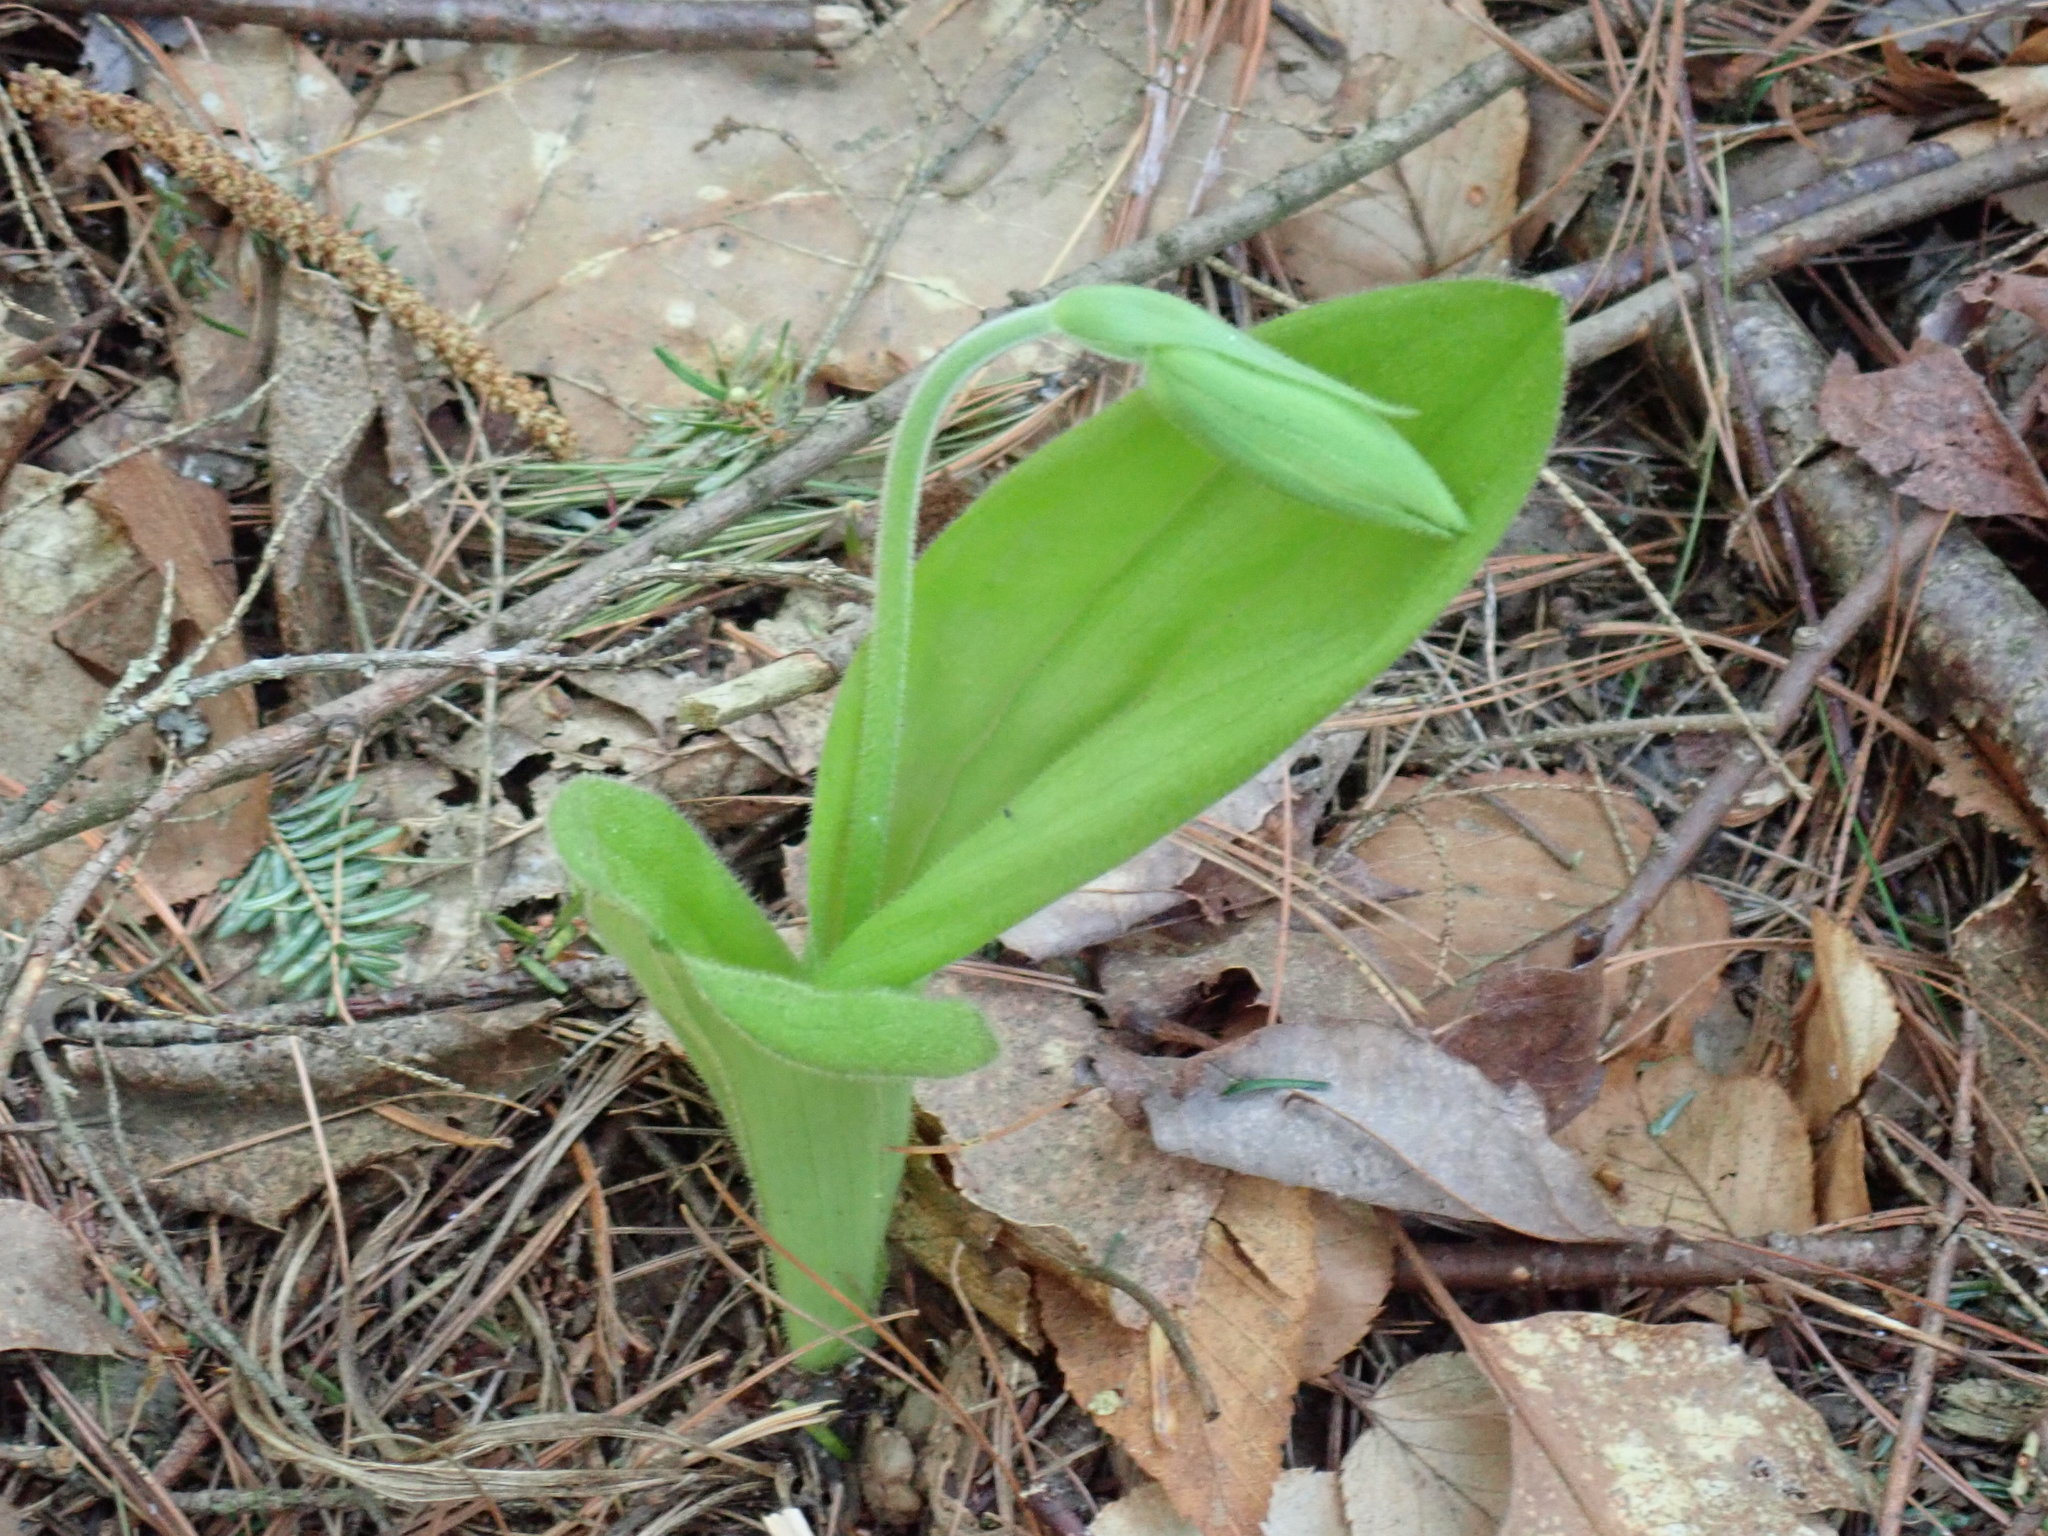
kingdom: Plantae
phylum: Tracheophyta
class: Liliopsida
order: Asparagales
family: Orchidaceae
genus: Cypripedium
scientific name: Cypripedium acaule
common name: Pink lady's-slipper
